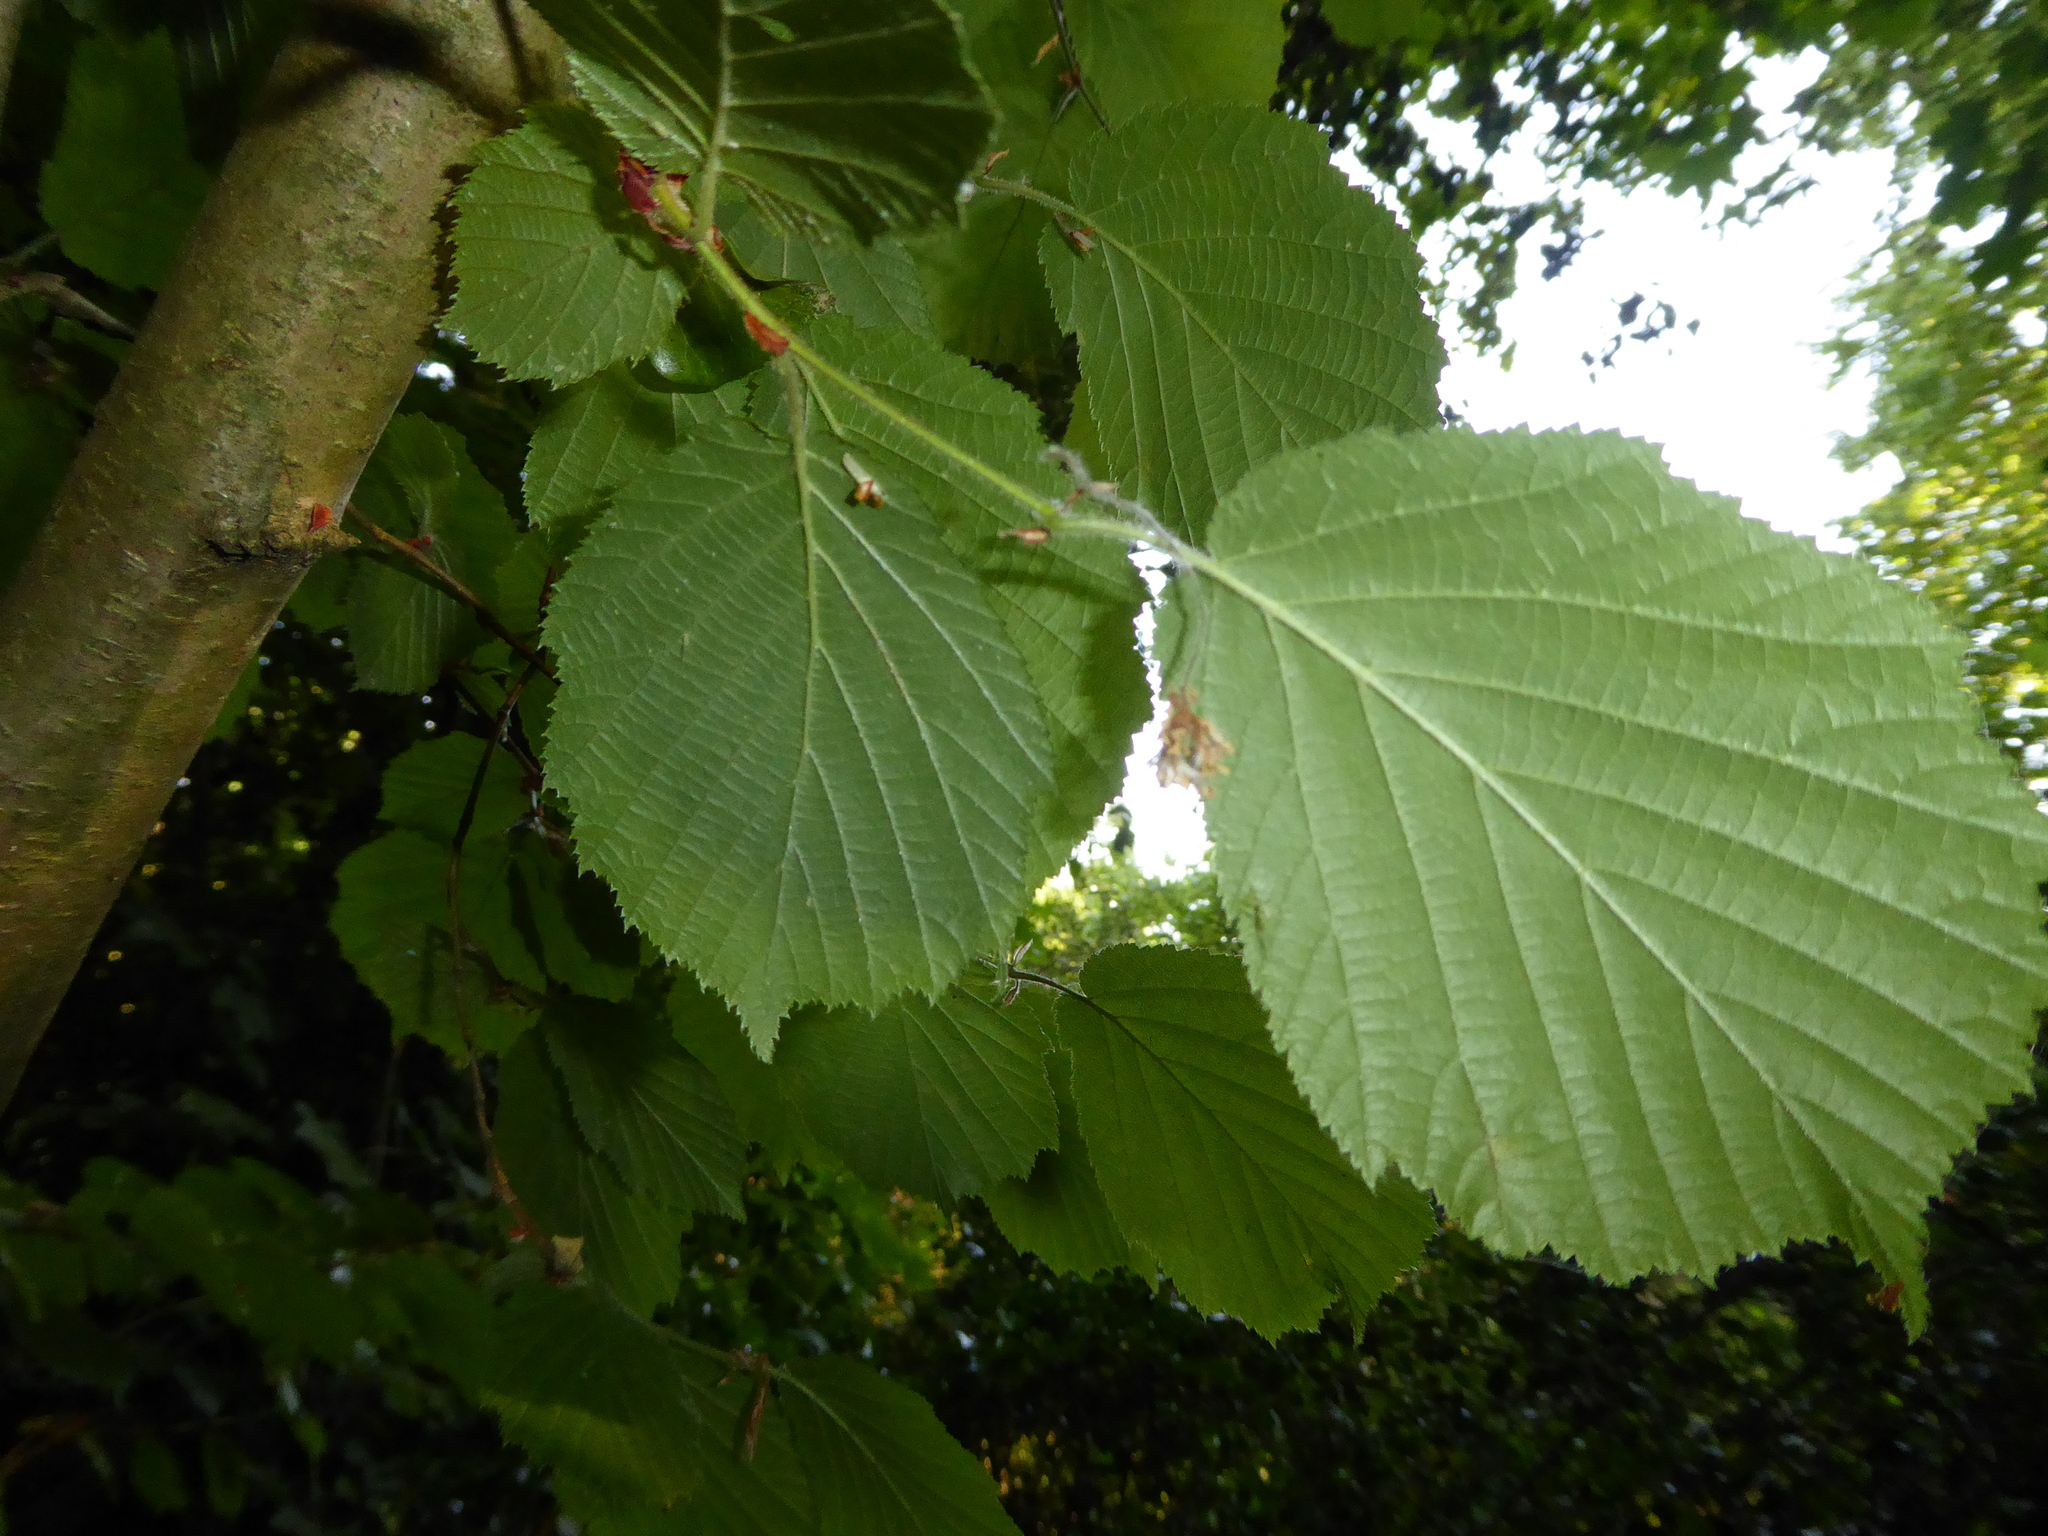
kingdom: Plantae
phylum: Tracheophyta
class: Magnoliopsida
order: Fagales
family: Betulaceae
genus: Corylus
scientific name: Corylus avellana
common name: European hazel
